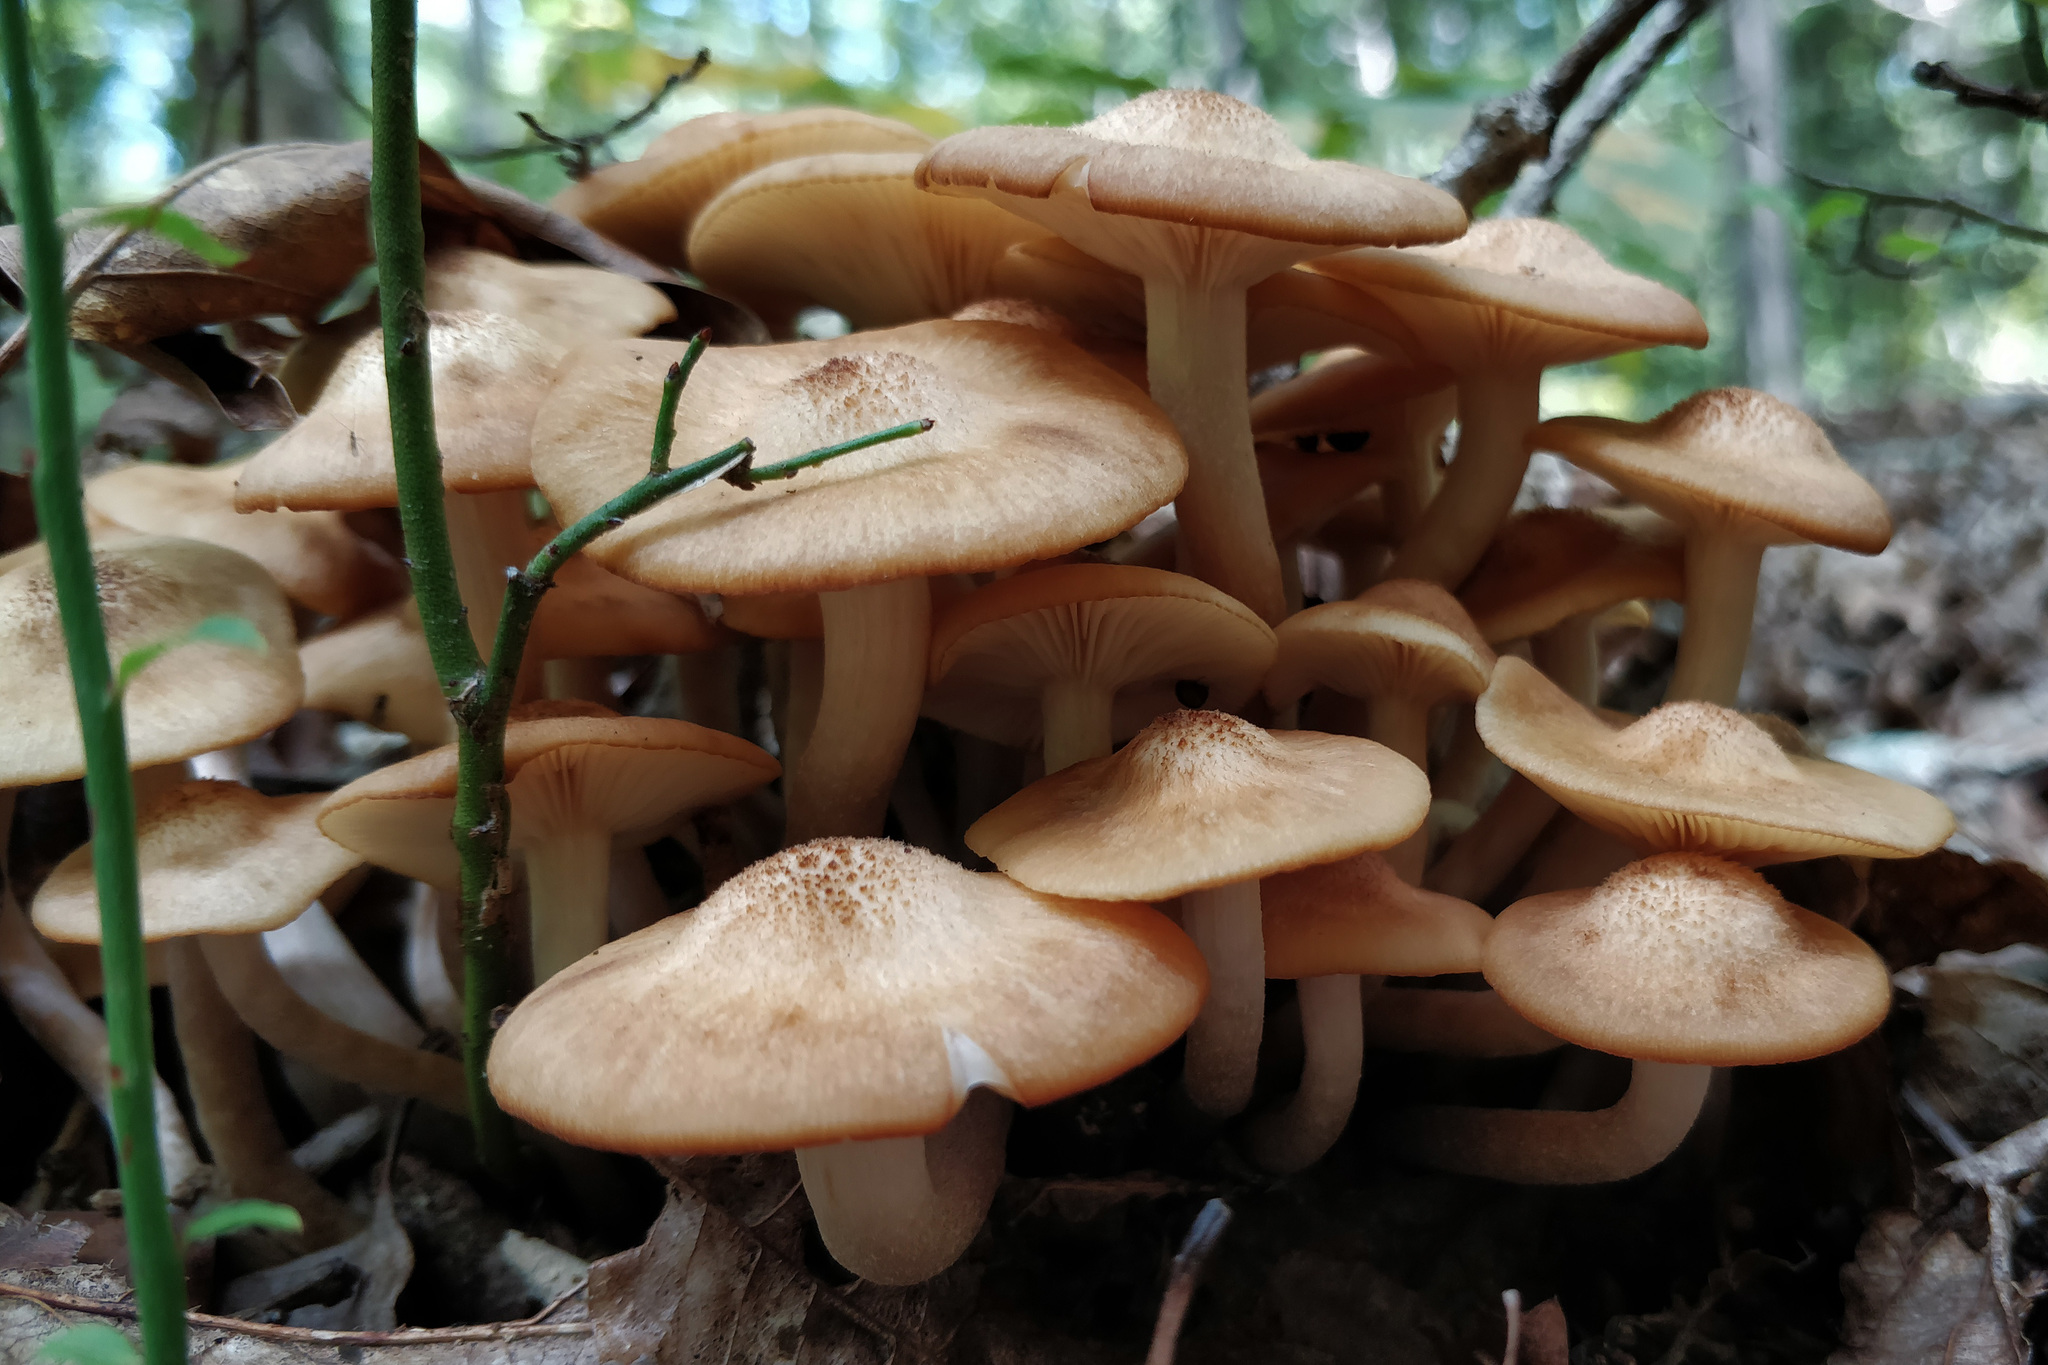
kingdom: Fungi
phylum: Basidiomycota
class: Agaricomycetes
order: Agaricales
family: Physalacriaceae
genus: Desarmillaria
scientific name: Desarmillaria caespitosa
